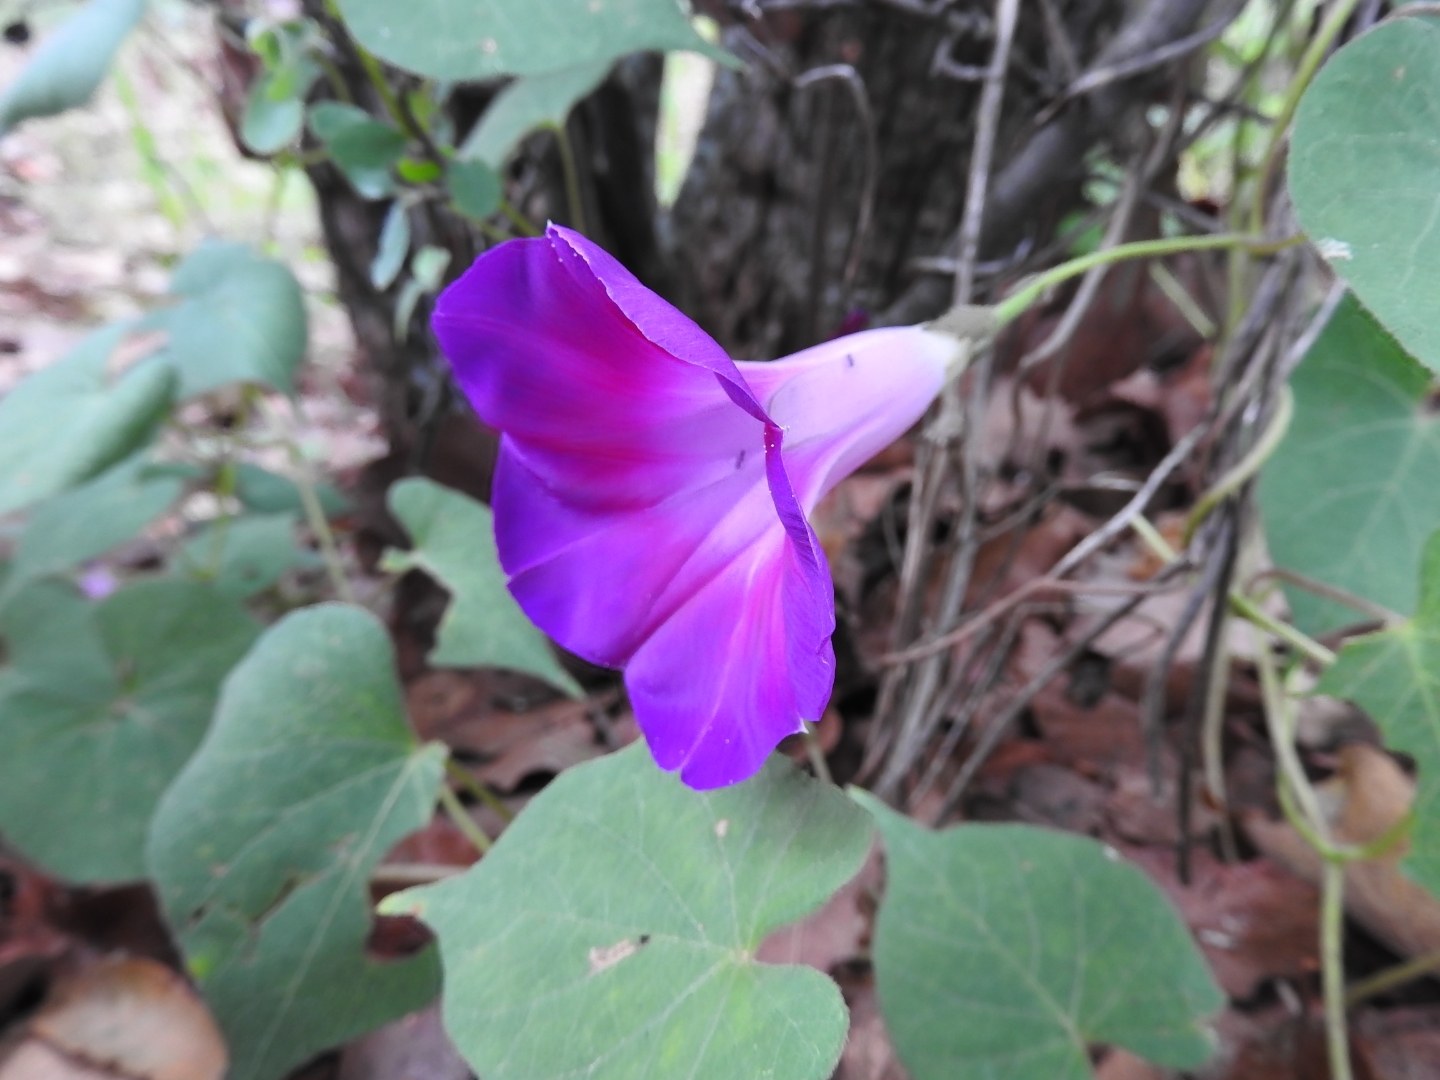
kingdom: Plantae
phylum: Tracheophyta
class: Magnoliopsida
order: Solanales
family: Convolvulaceae
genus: Ipomoea
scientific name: Ipomoea orizabensis
